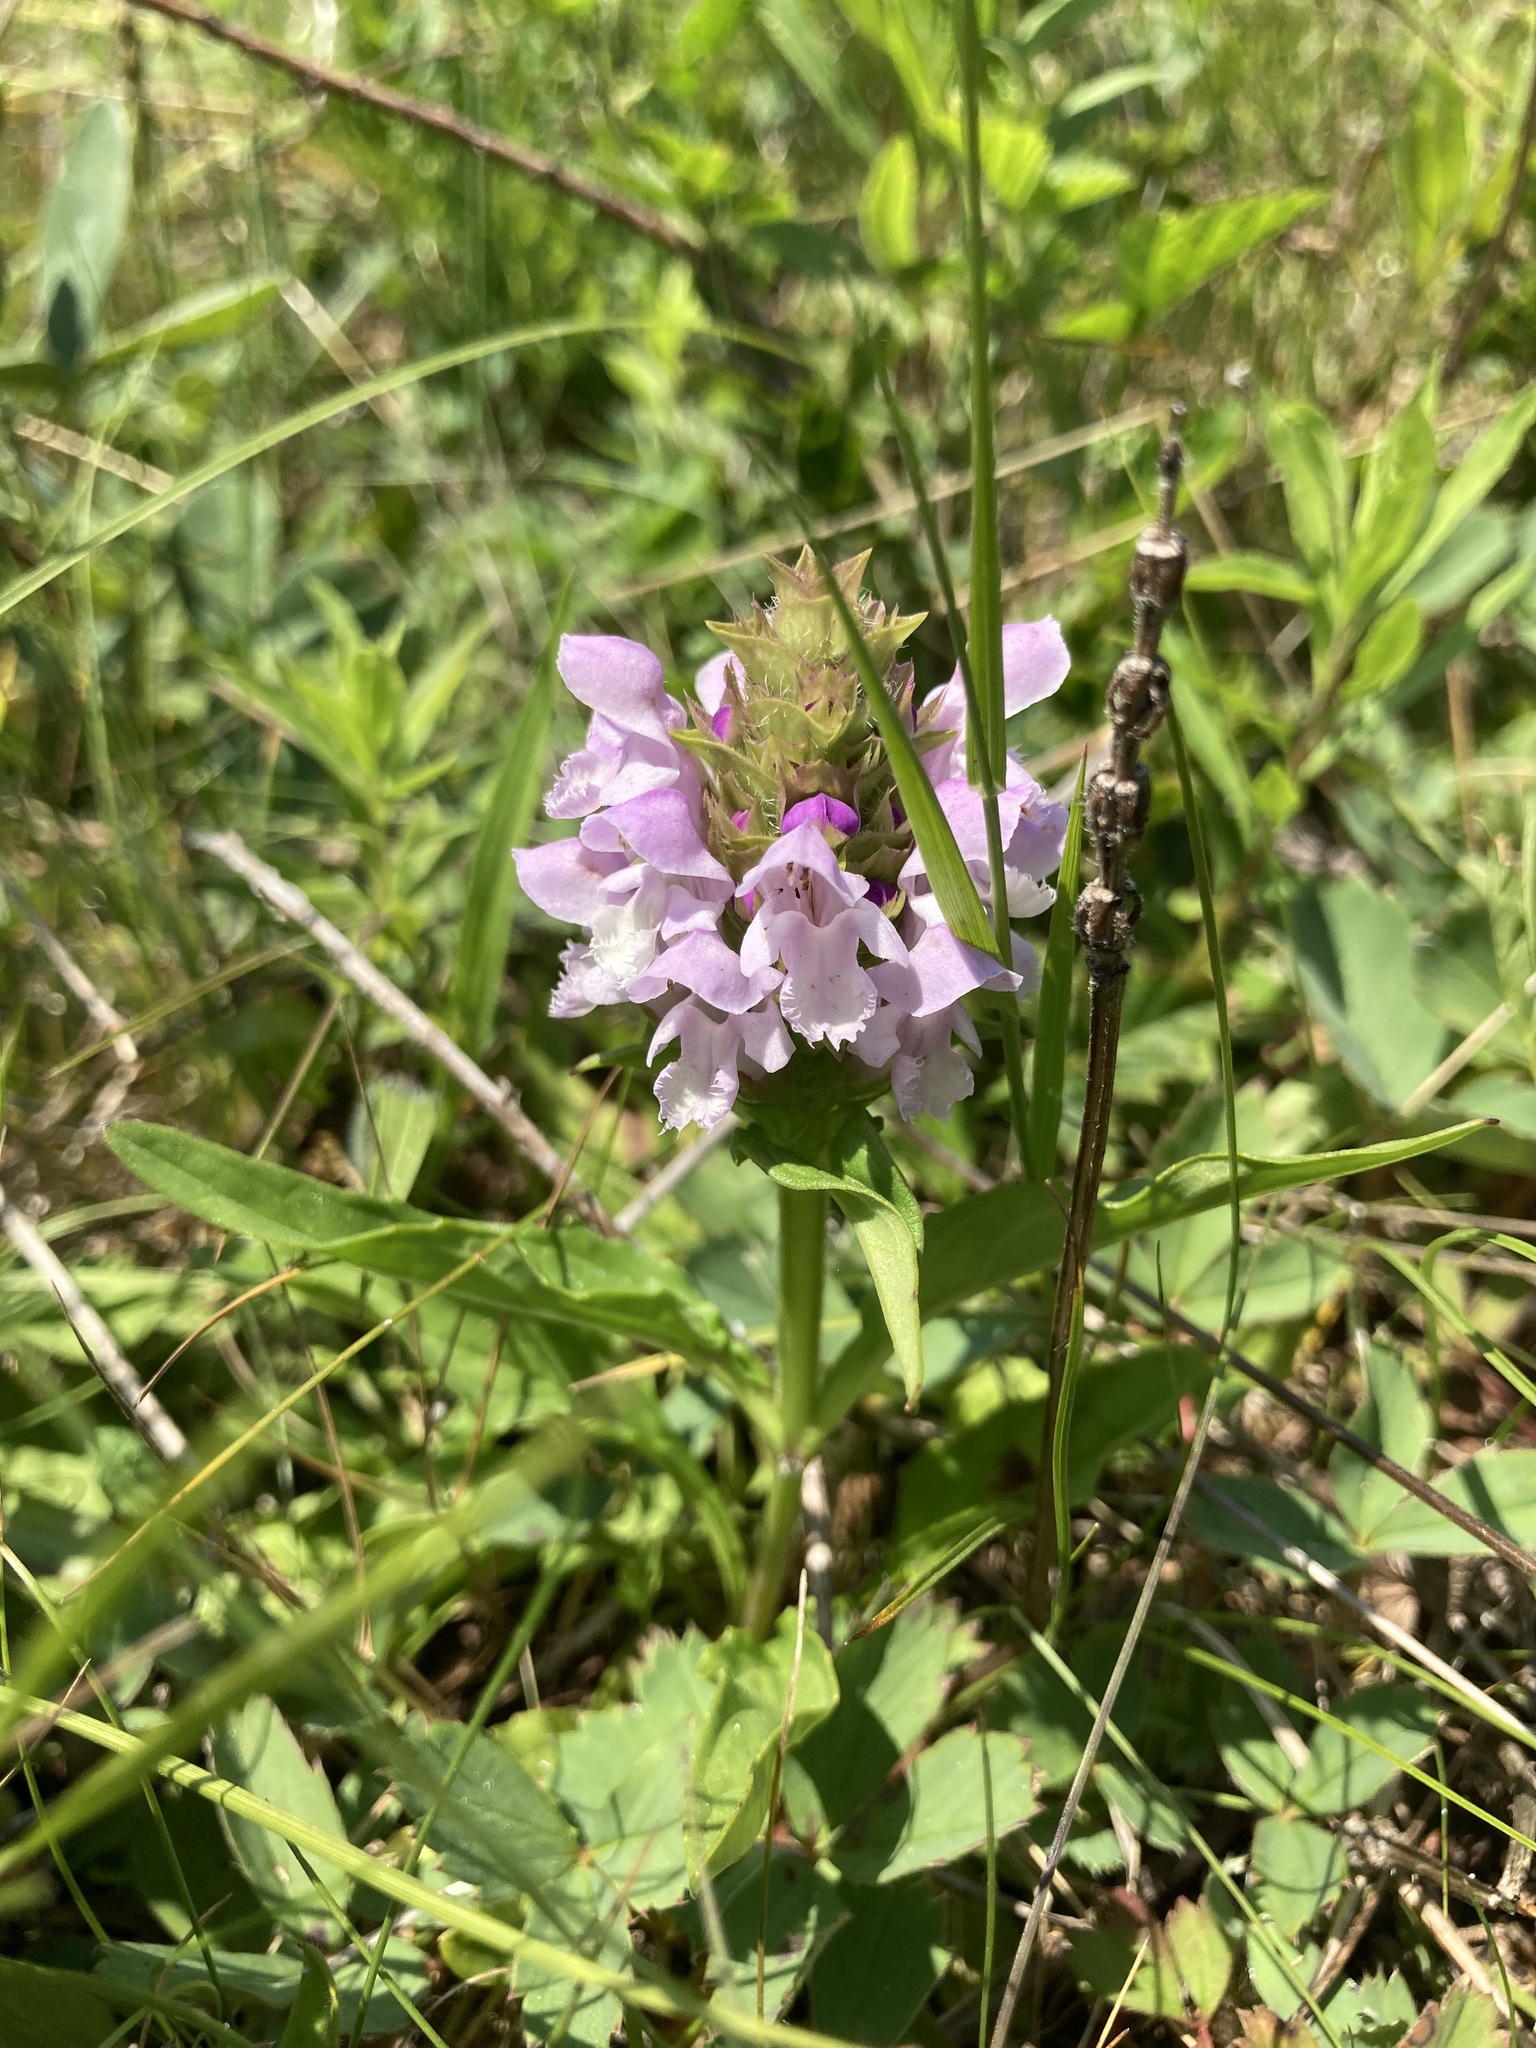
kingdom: Plantae
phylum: Tracheophyta
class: Magnoliopsida
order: Lamiales
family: Lamiaceae
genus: Prunella
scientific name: Prunella vulgaris
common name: Heal-all
